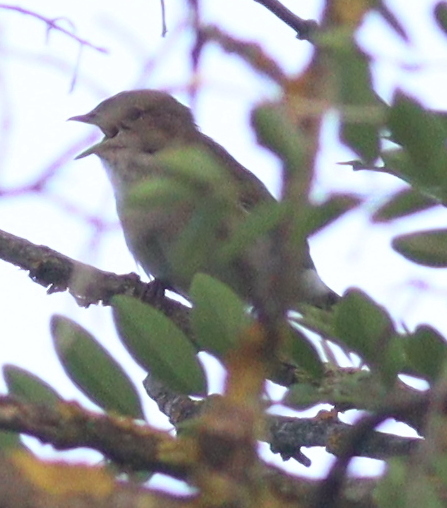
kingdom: Animalia
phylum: Chordata
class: Aves
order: Passeriformes
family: Sylviidae
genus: Sylvia
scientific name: Sylvia borin
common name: Garden warbler
